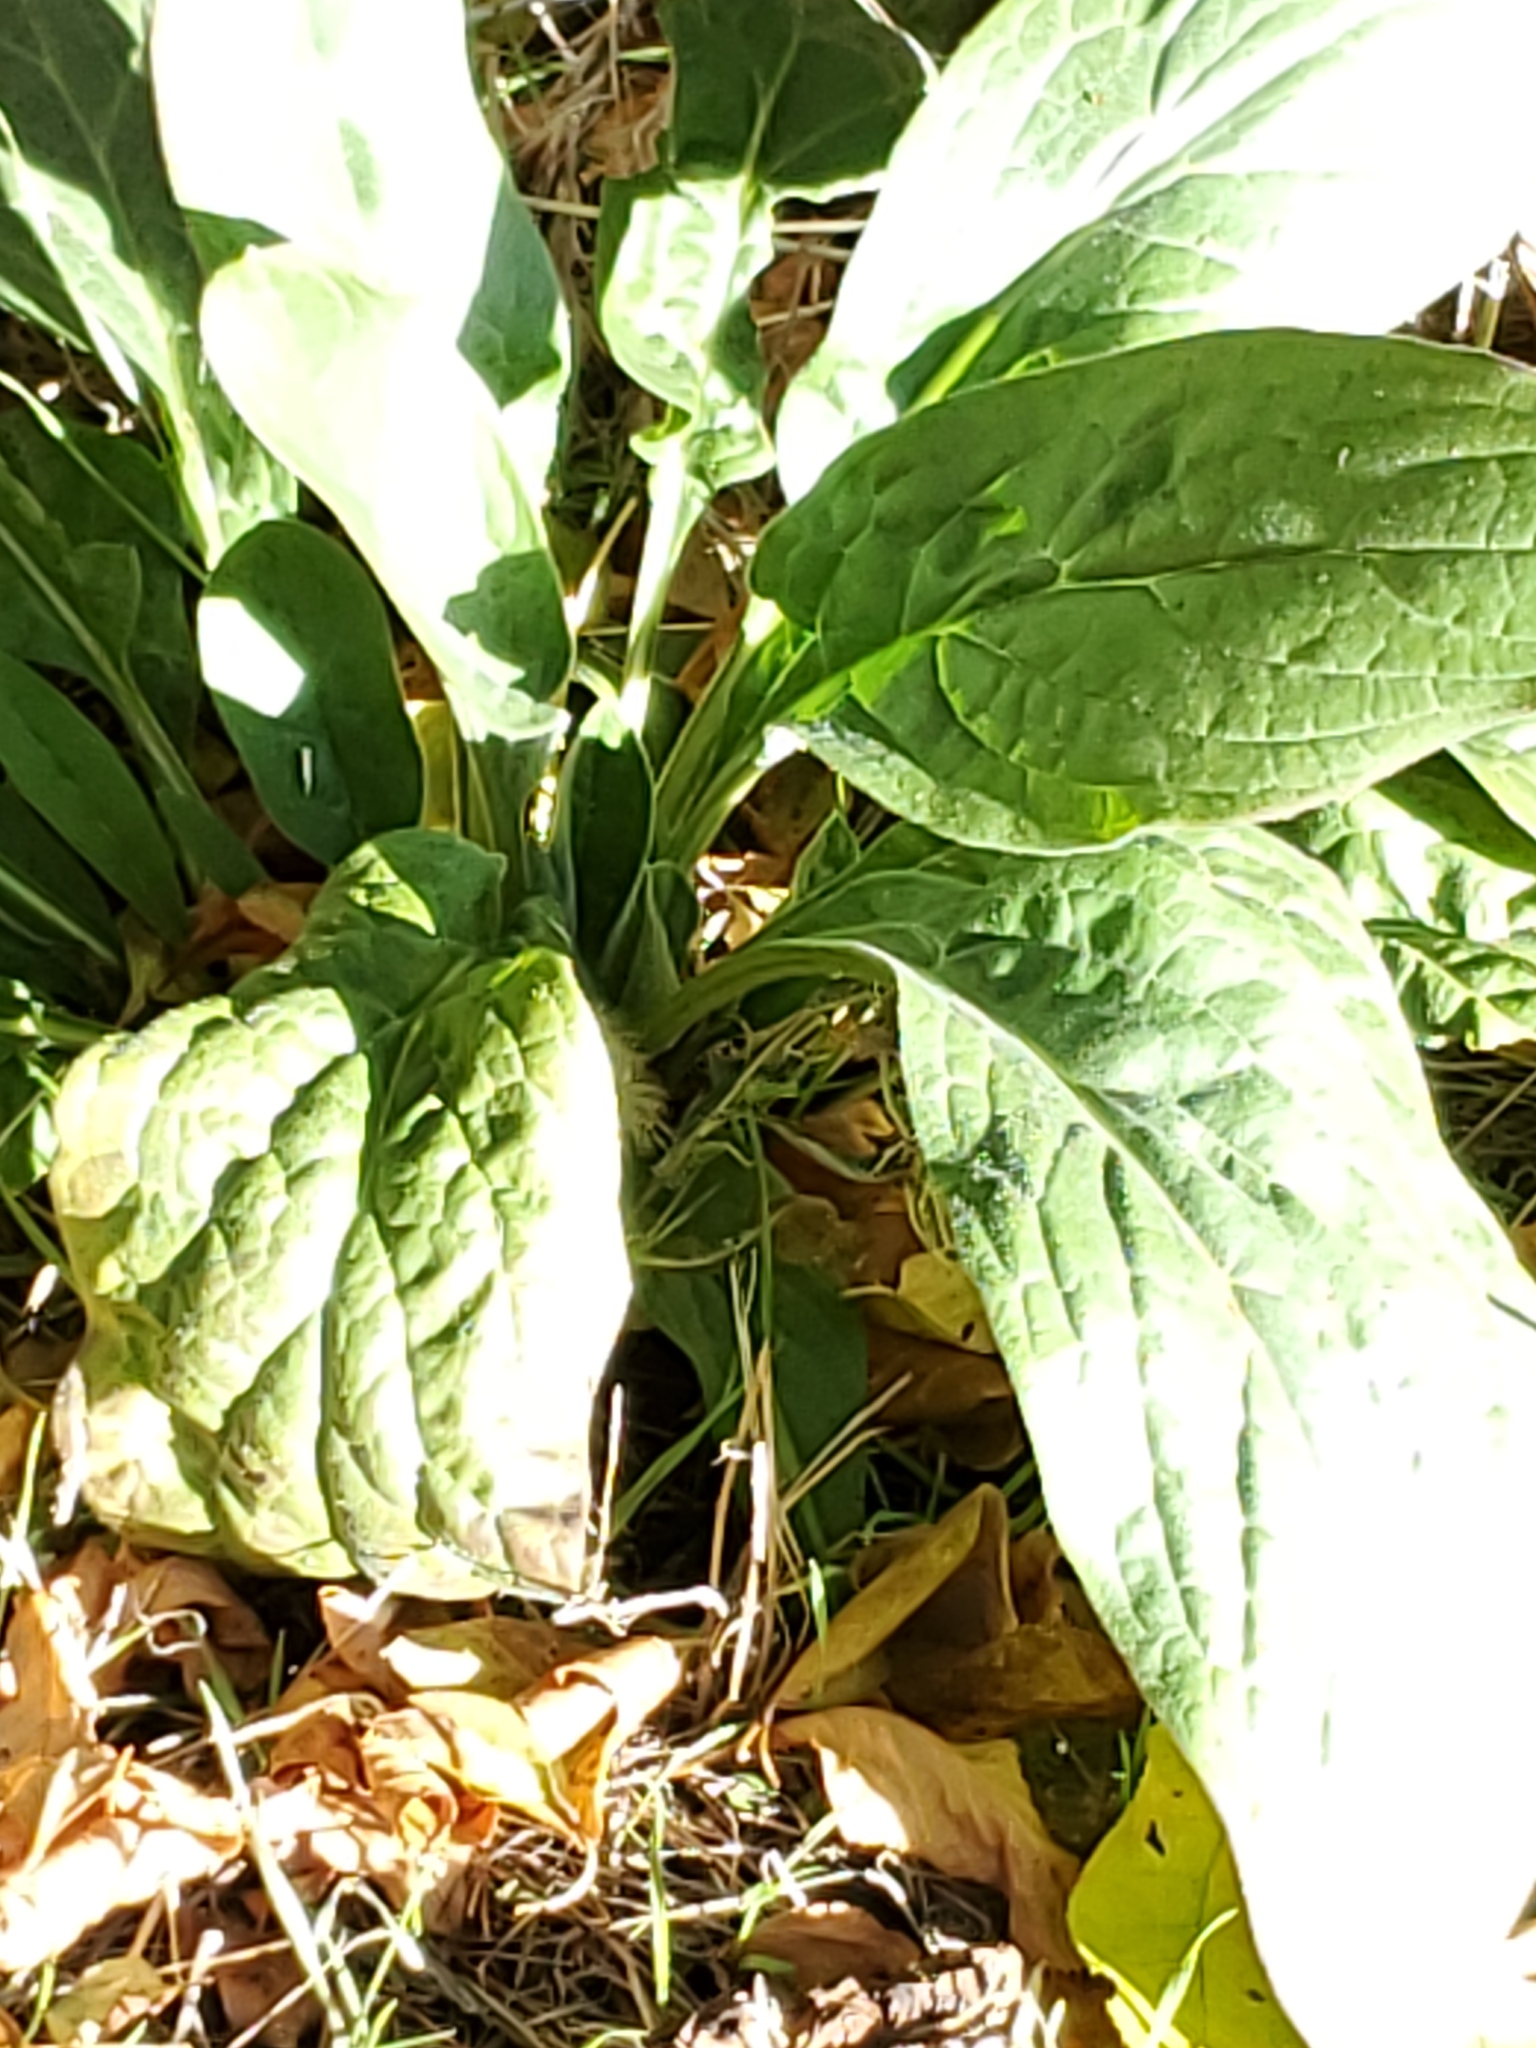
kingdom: Plantae
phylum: Tracheophyta
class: Magnoliopsida
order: Boraginales
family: Boraginaceae
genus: Cynoglossum
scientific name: Cynoglossum officinale
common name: Hound's-tongue
